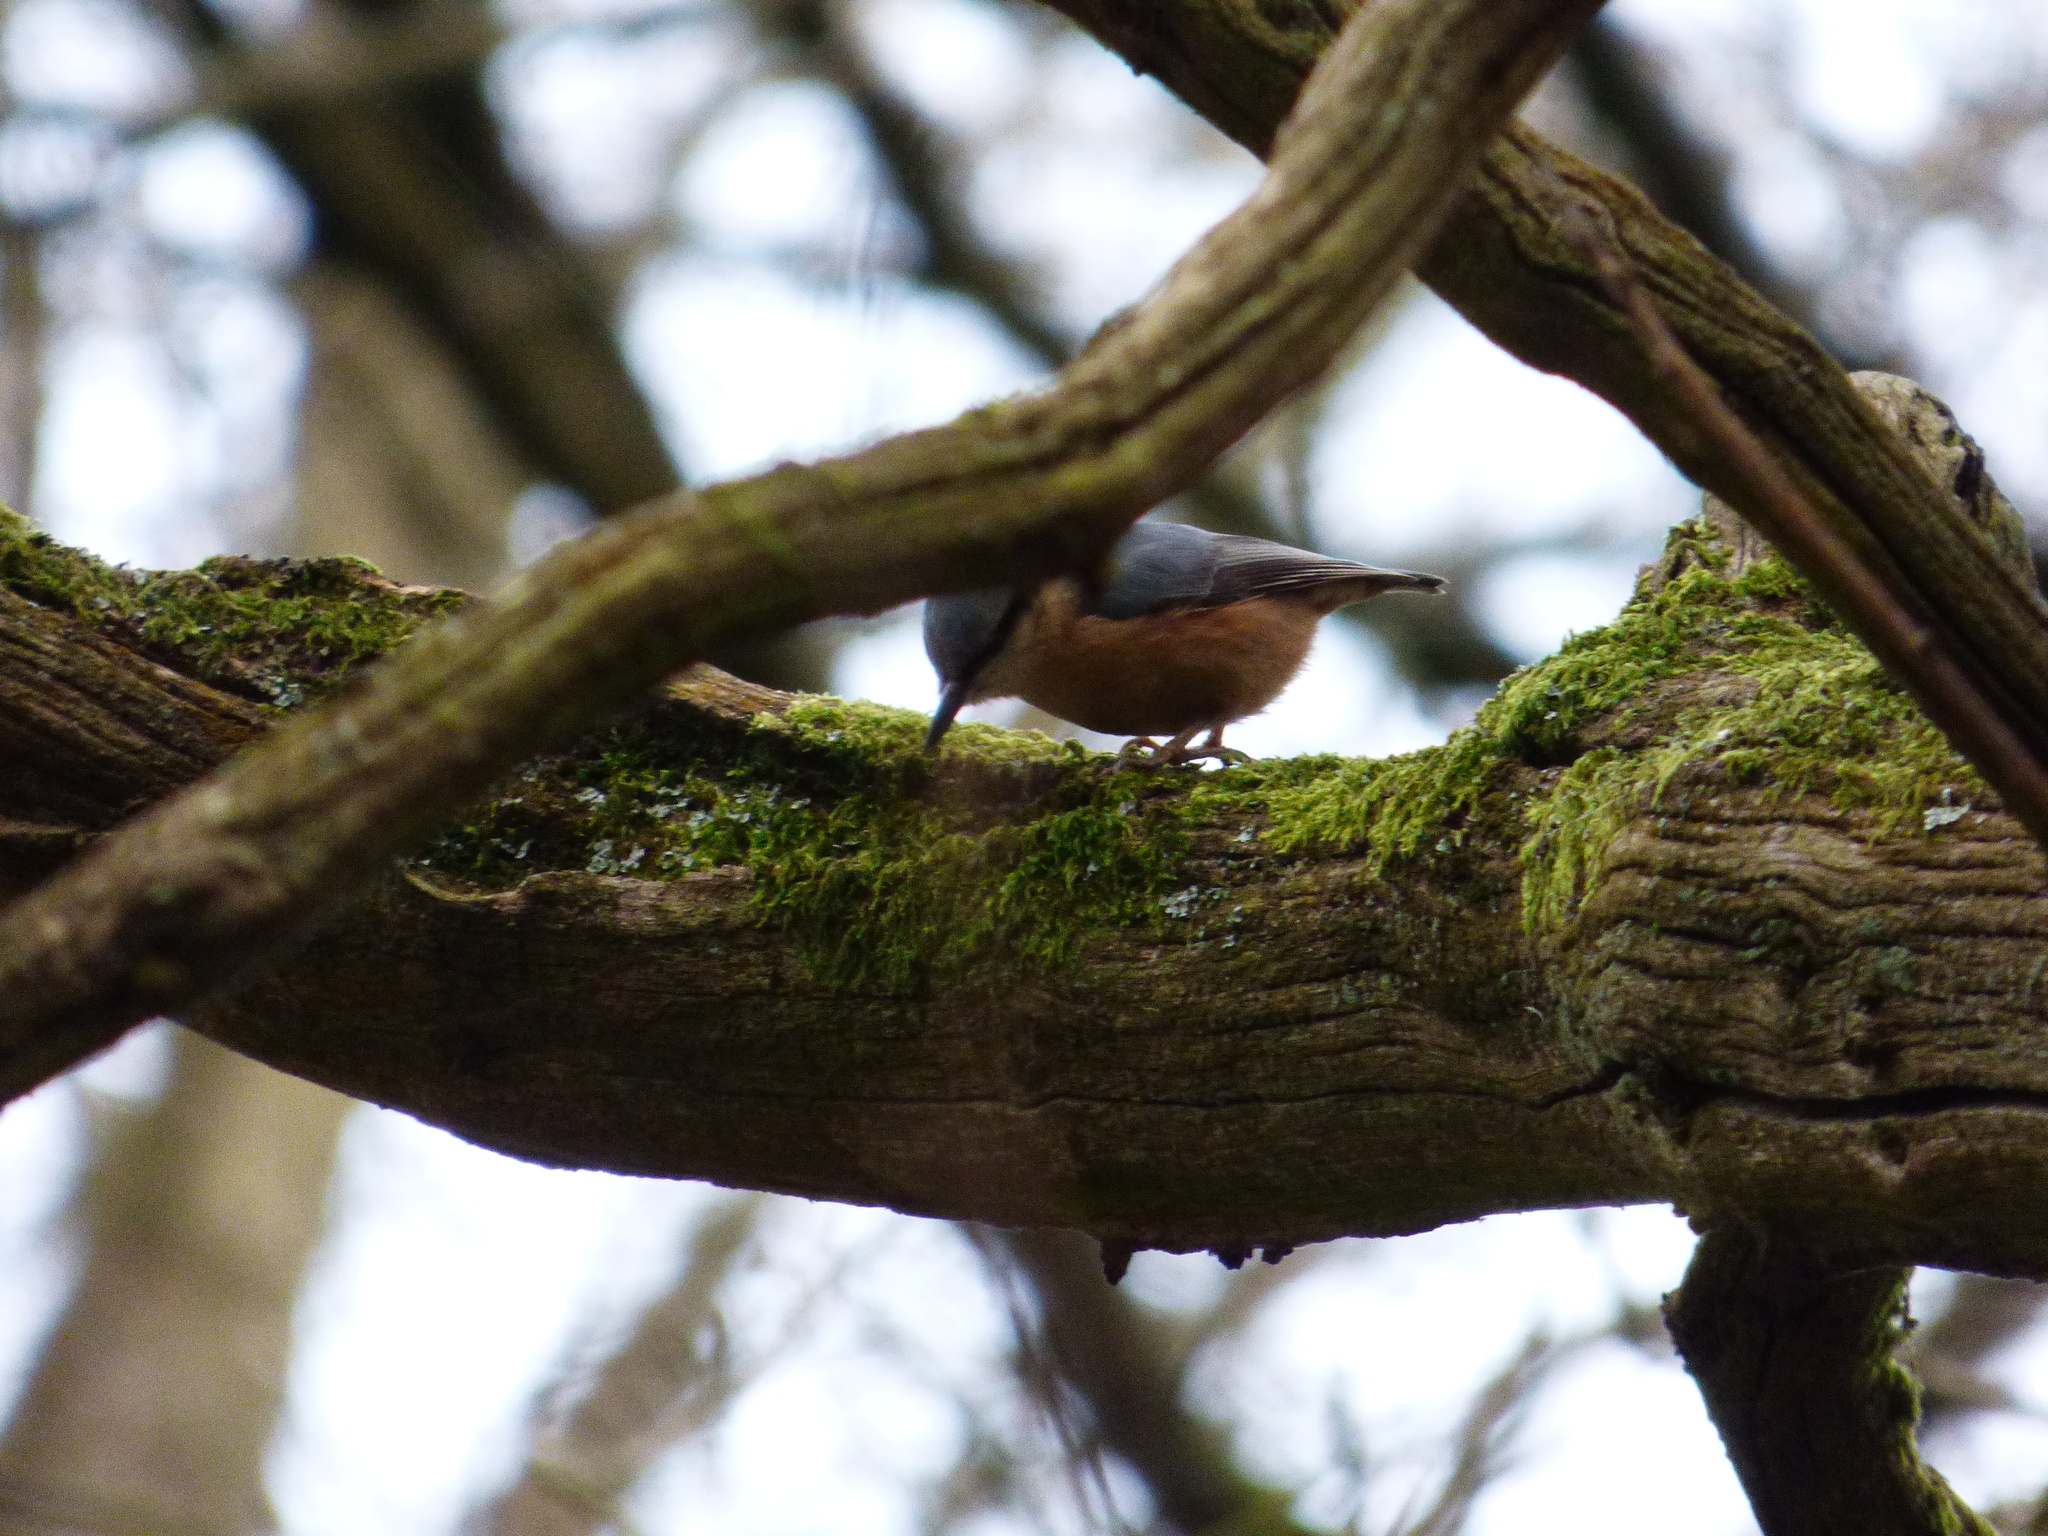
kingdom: Animalia
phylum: Chordata
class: Aves
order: Passeriformes
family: Sittidae
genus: Sitta
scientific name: Sitta europaea
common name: Eurasian nuthatch
